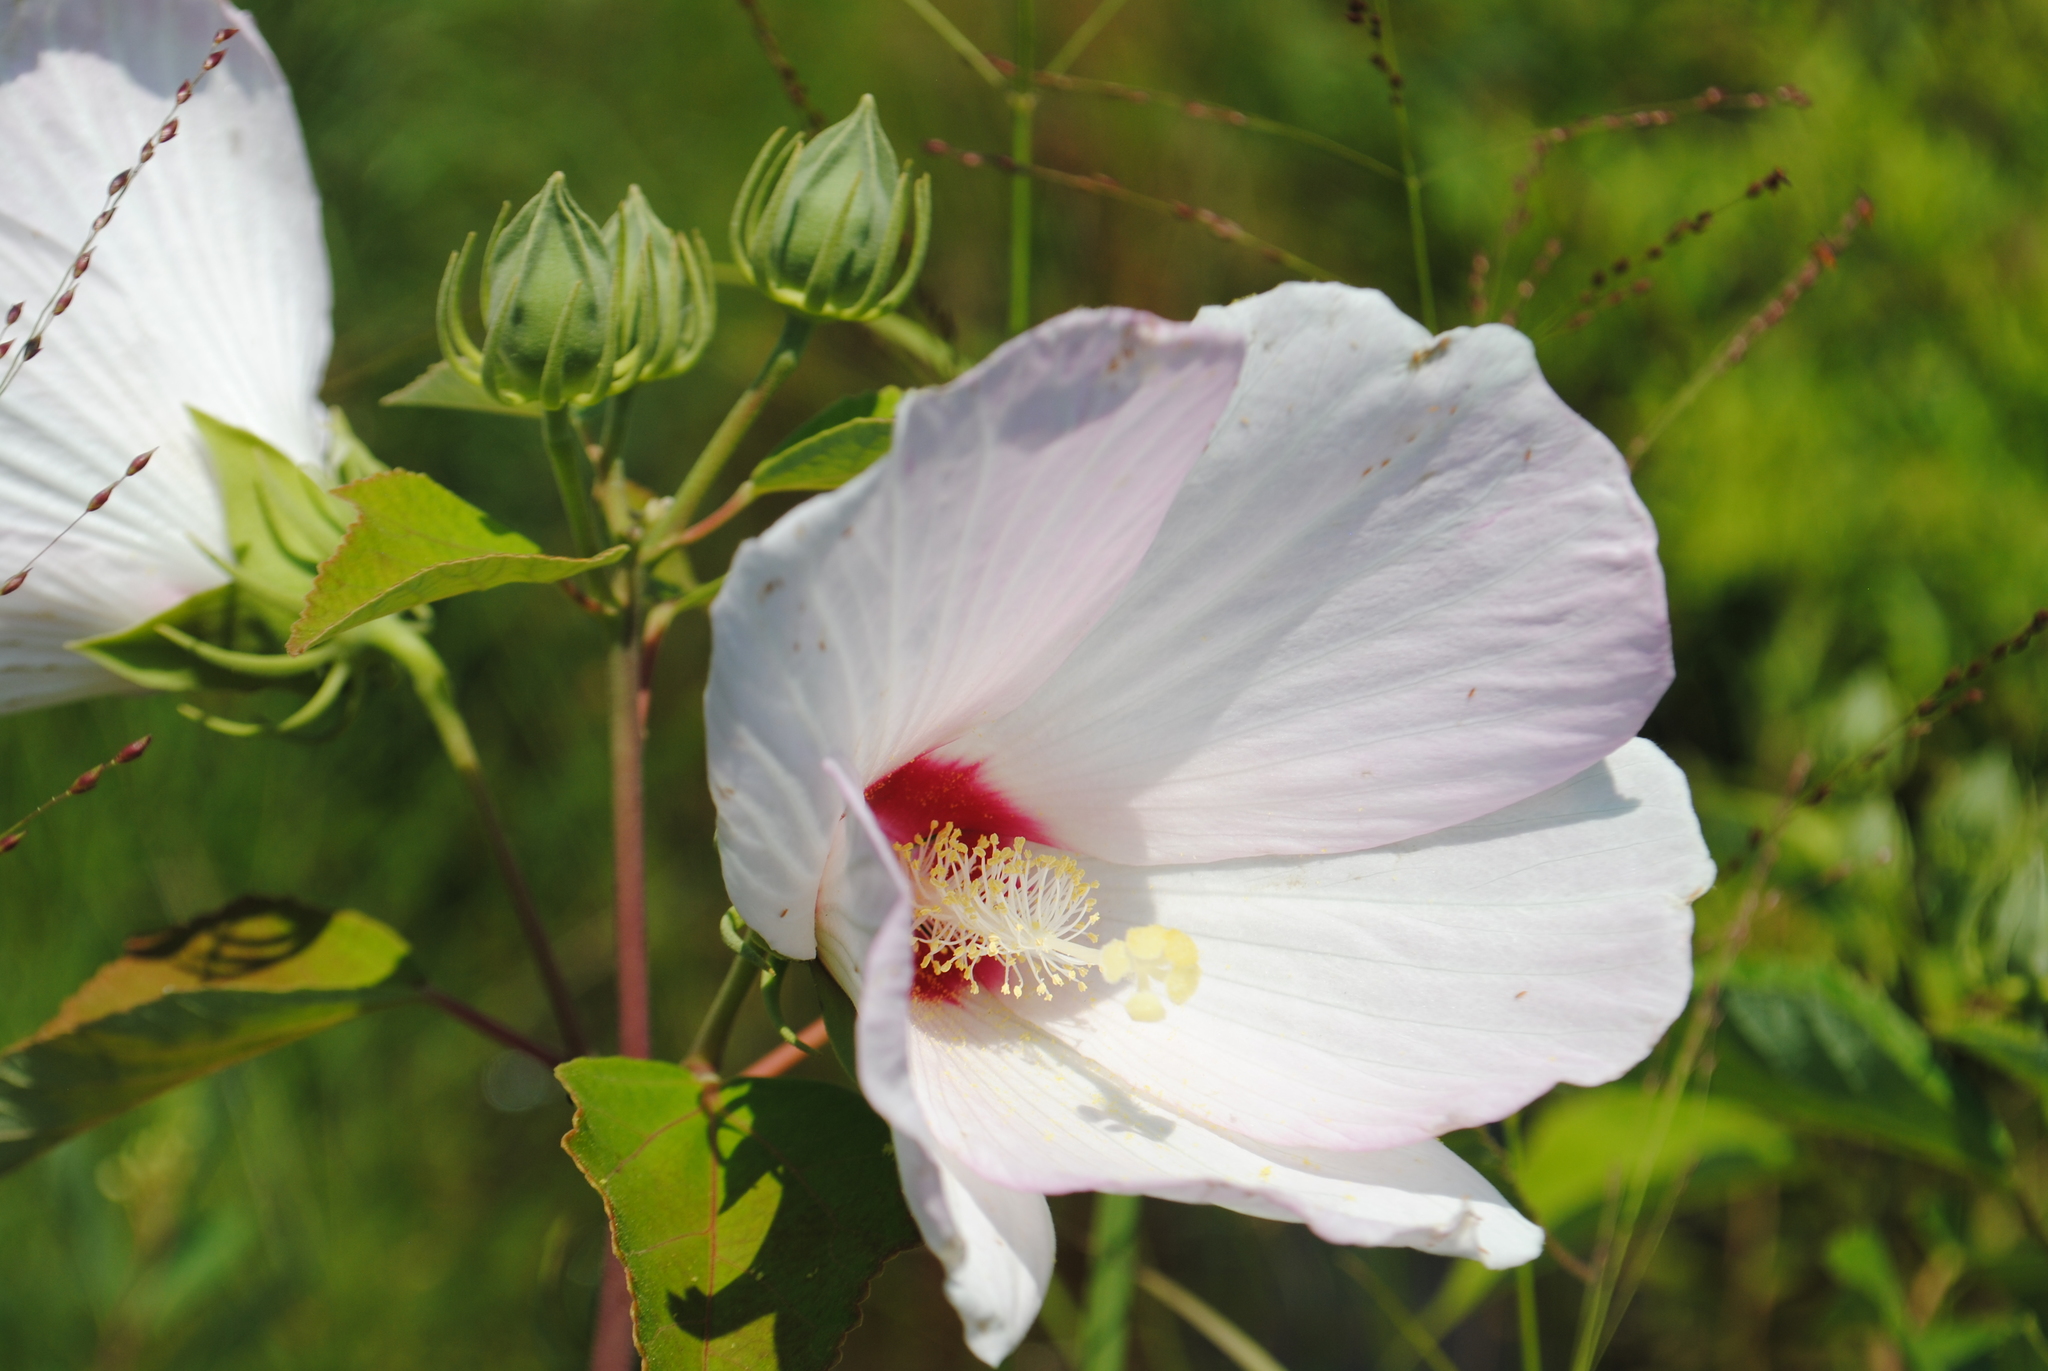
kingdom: Plantae
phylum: Tracheophyta
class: Magnoliopsida
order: Malvales
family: Malvaceae
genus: Hibiscus
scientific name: Hibiscus moscheutos
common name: Common rose-mallow
